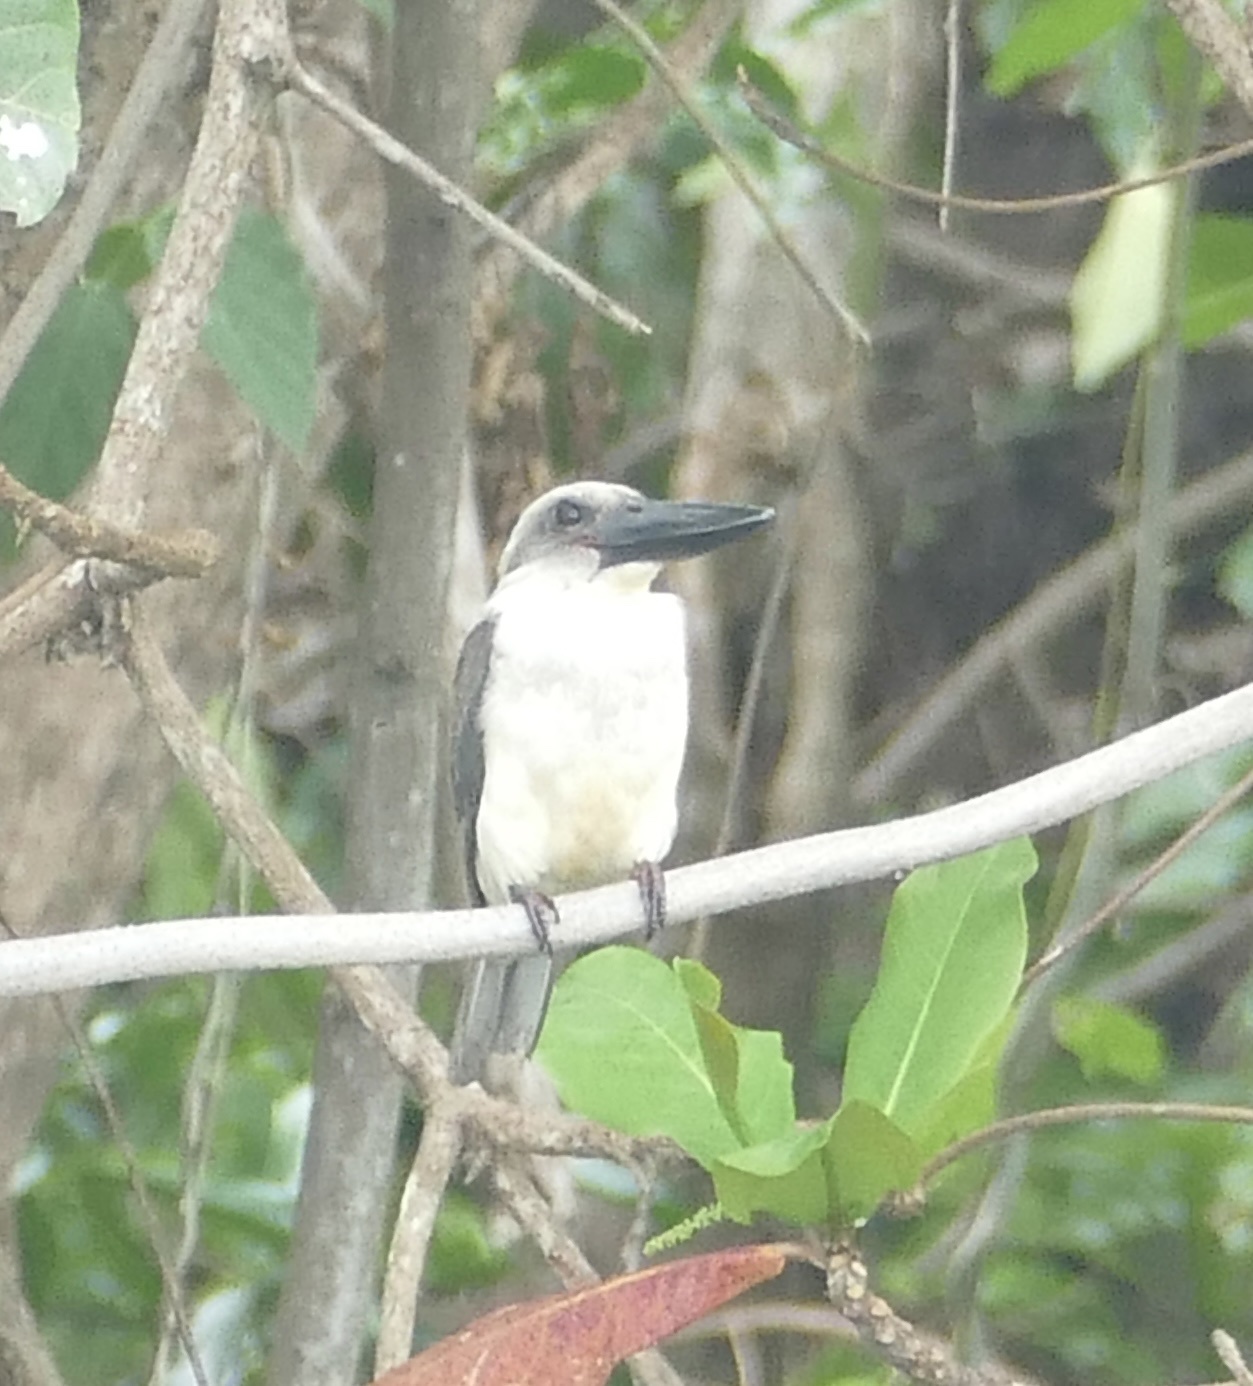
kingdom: Animalia
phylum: Chordata
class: Aves
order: Coraciiformes
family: Alcedinidae
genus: Pelargopsis
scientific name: Pelargopsis melanorhyncha
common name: Great-billed kingfisher
